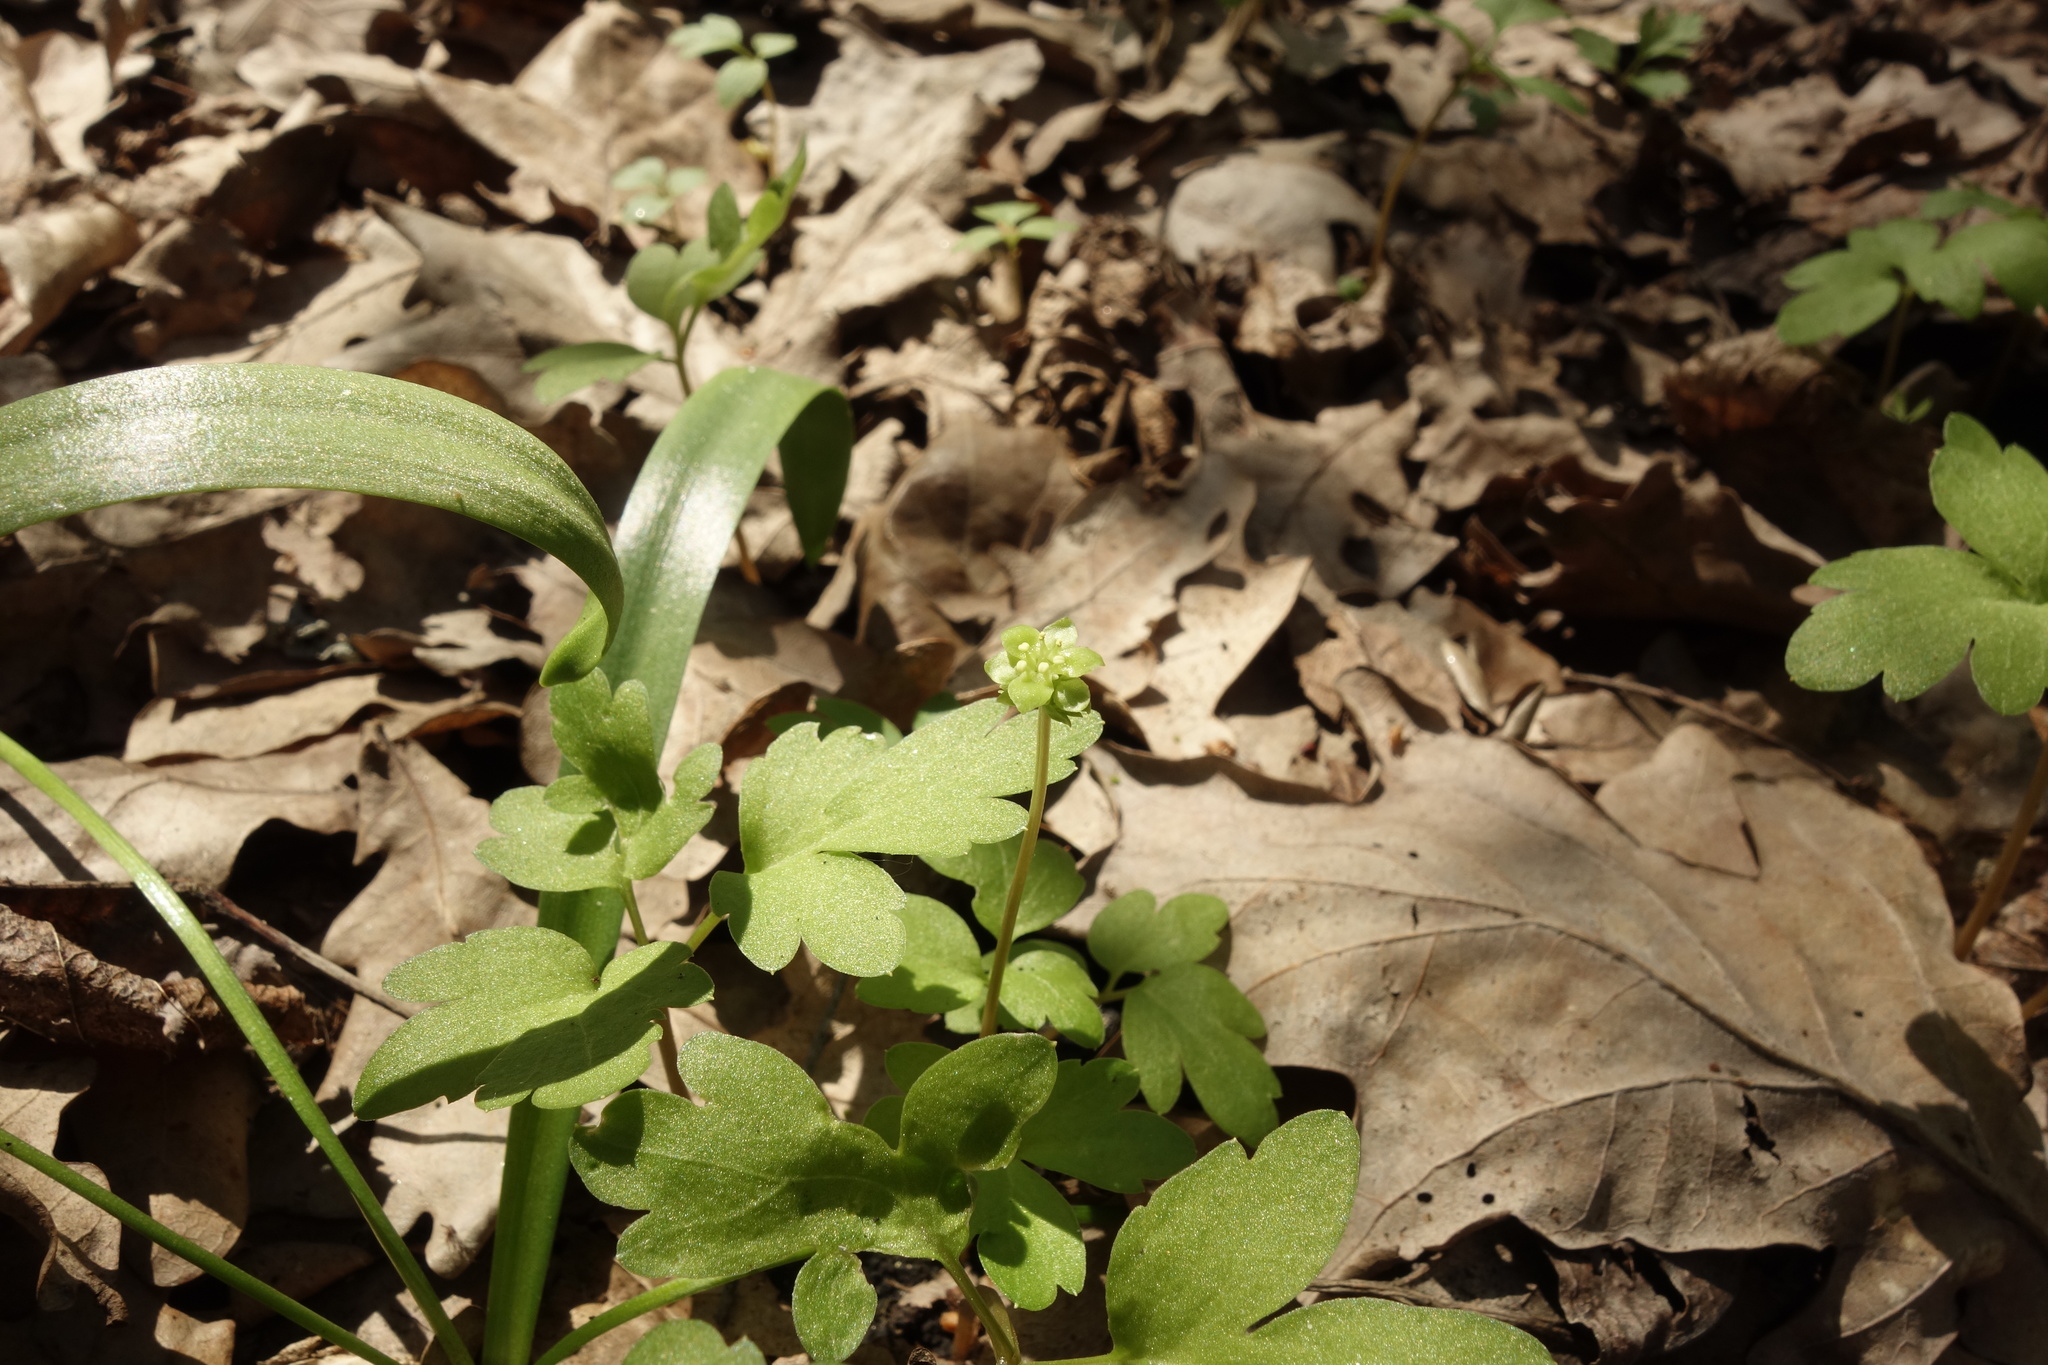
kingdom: Plantae
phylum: Tracheophyta
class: Magnoliopsida
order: Dipsacales
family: Viburnaceae
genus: Adoxa
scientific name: Adoxa moschatellina
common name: Moschatel
